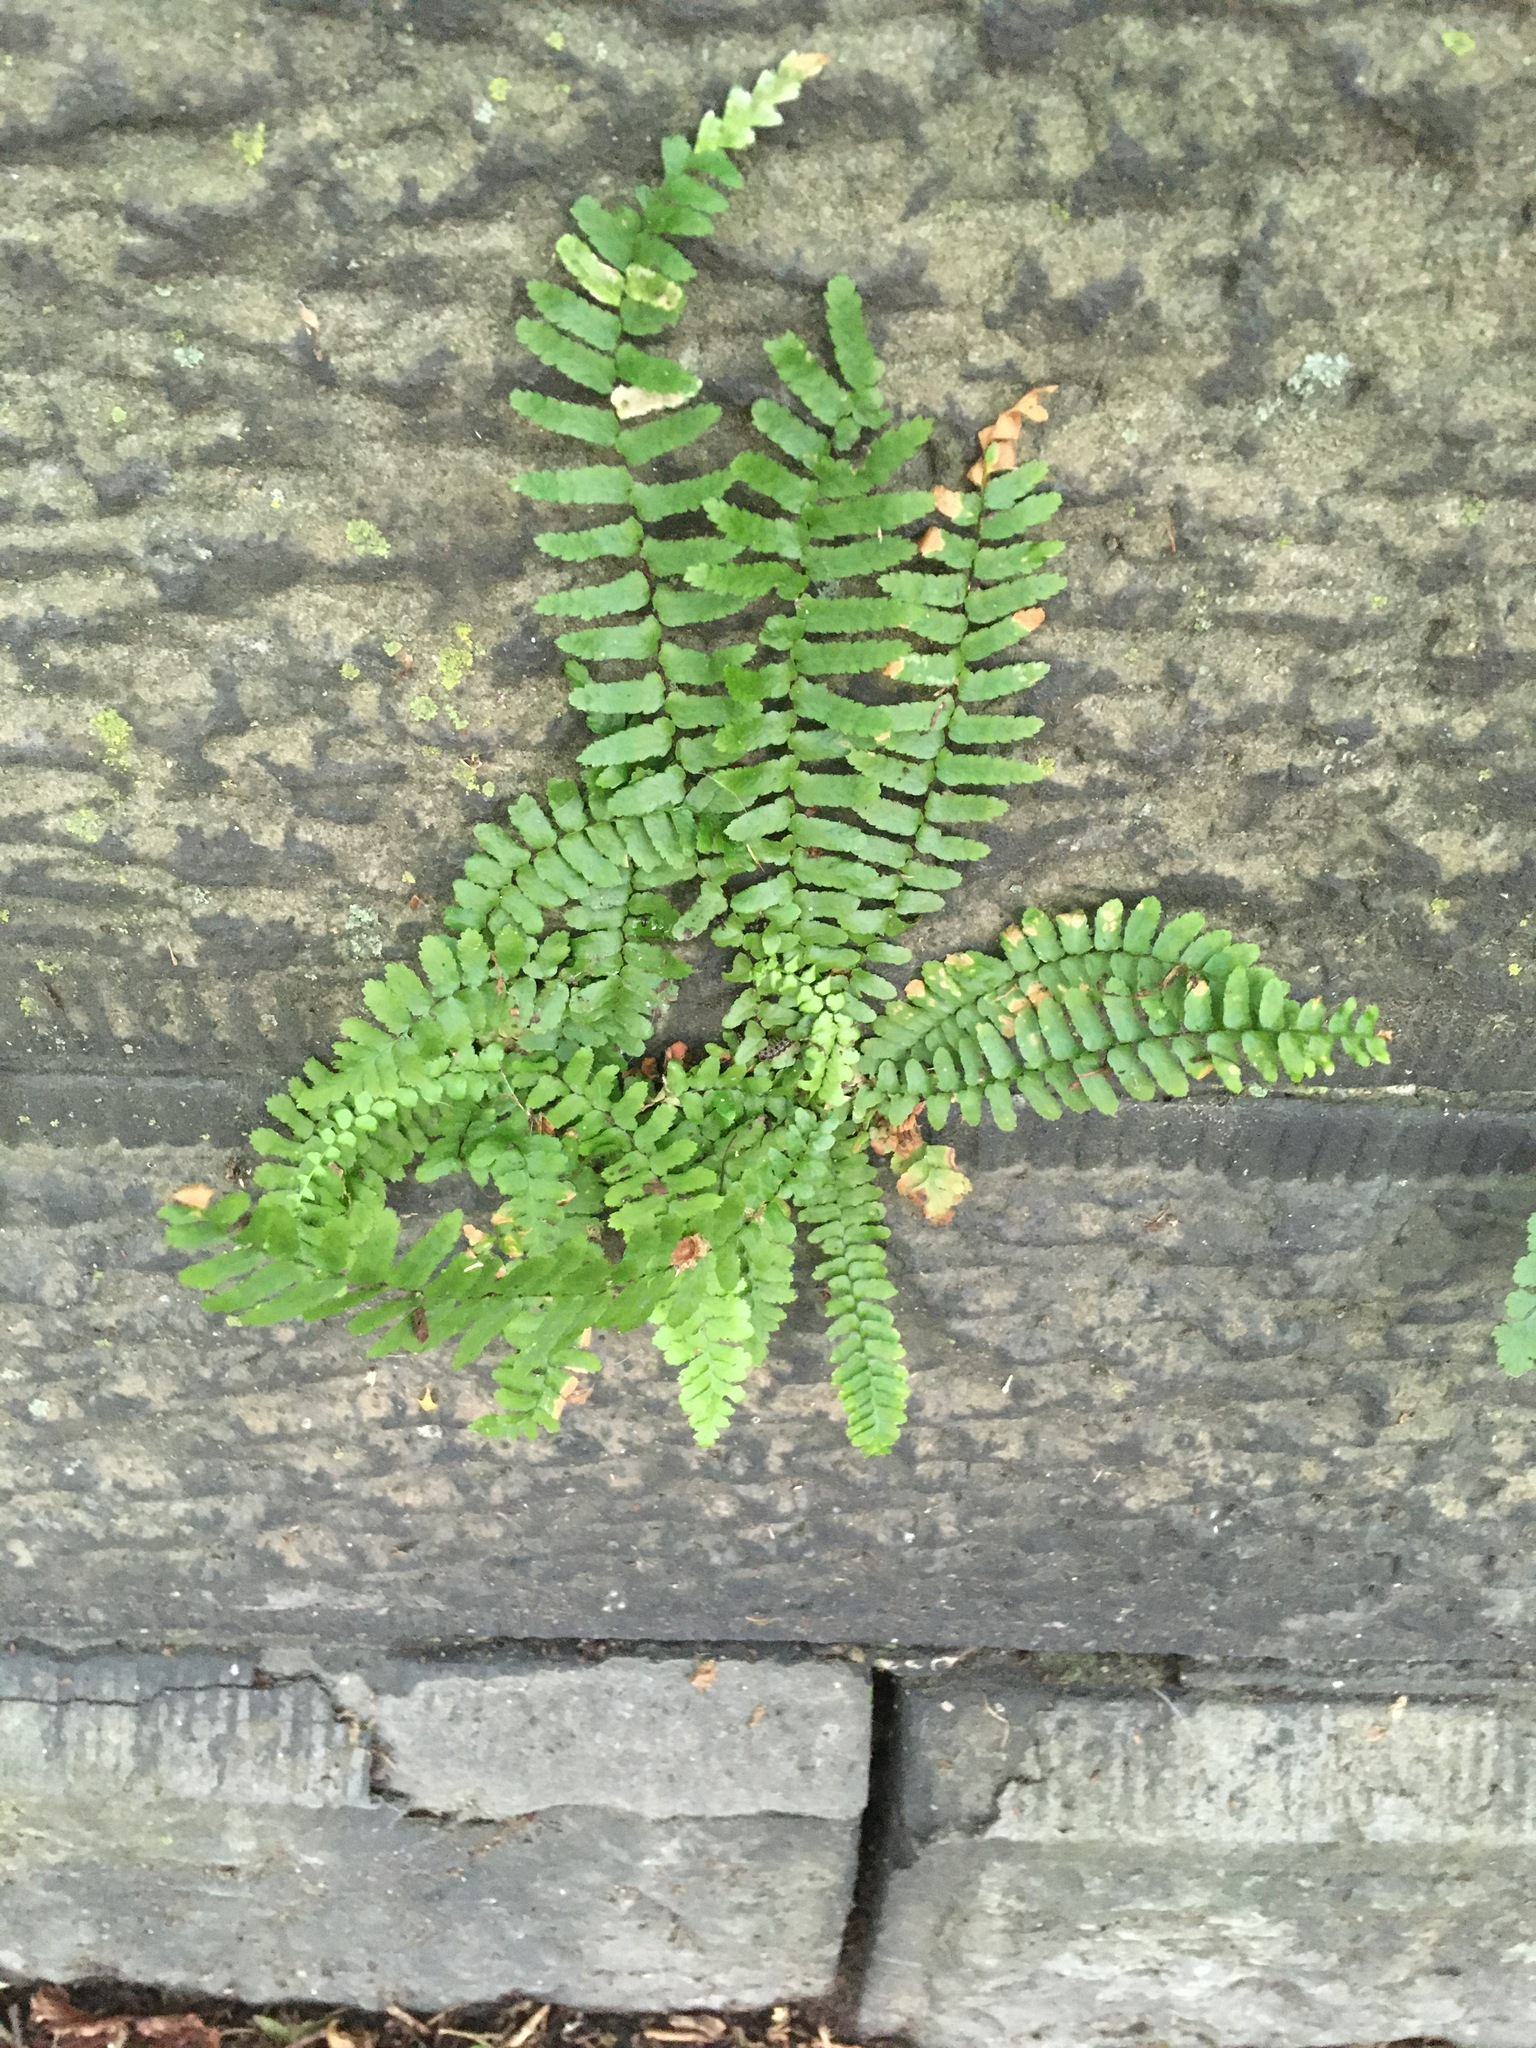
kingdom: Plantae
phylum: Tracheophyta
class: Polypodiopsida
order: Polypodiales
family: Aspleniaceae
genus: Asplenium
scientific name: Asplenium platyneuron
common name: Ebony spleenwort
